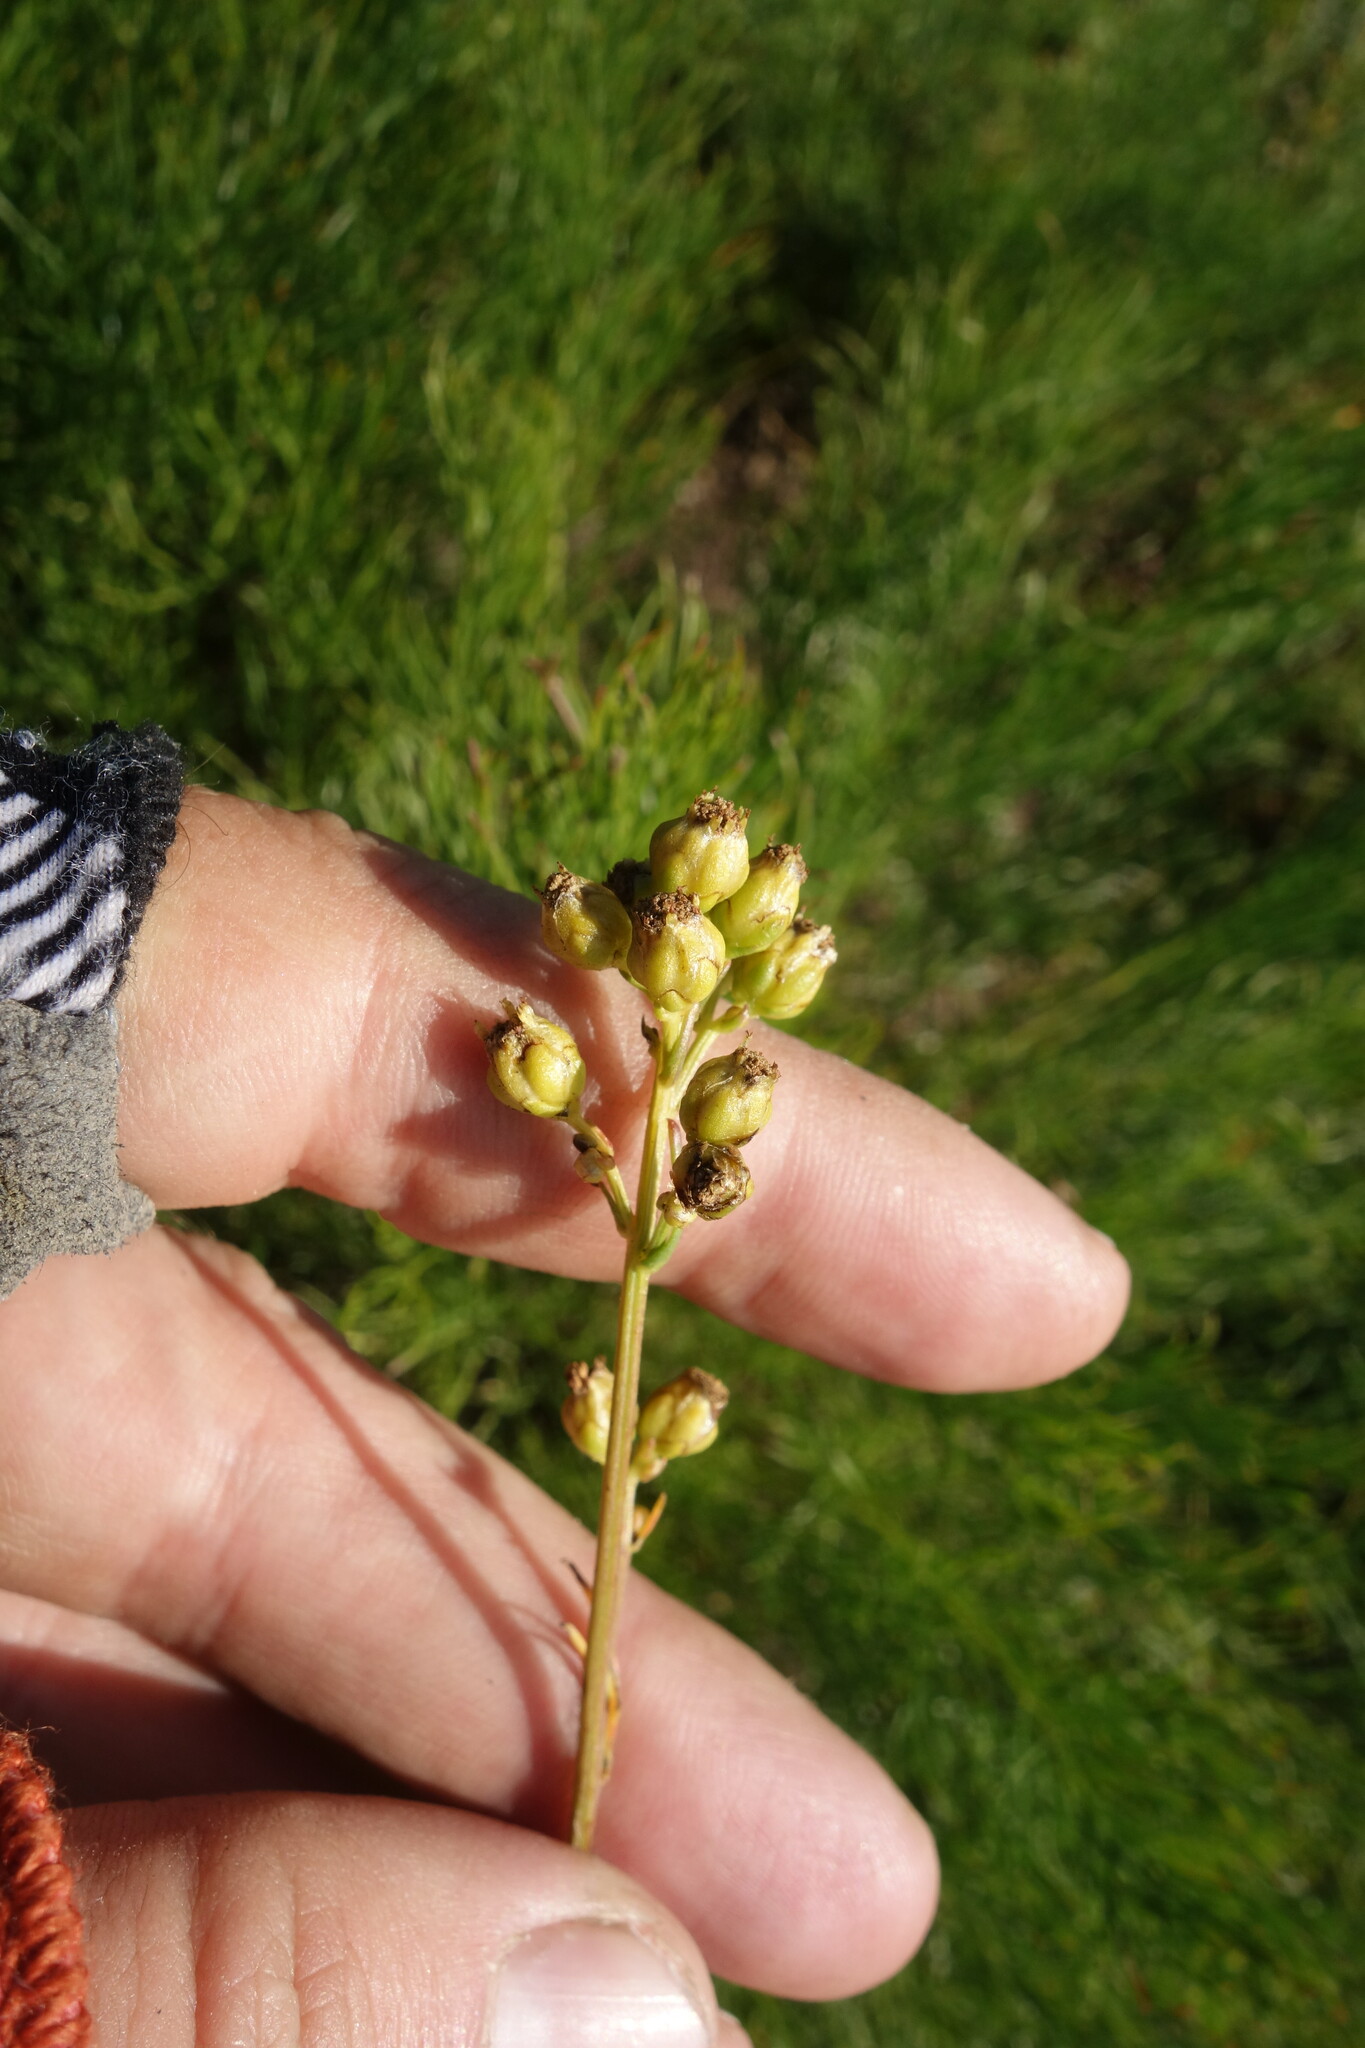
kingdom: Plantae
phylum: Tracheophyta
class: Magnoliopsida
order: Asterales
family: Asteraceae
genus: Filifolium
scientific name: Filifolium sibiricum
